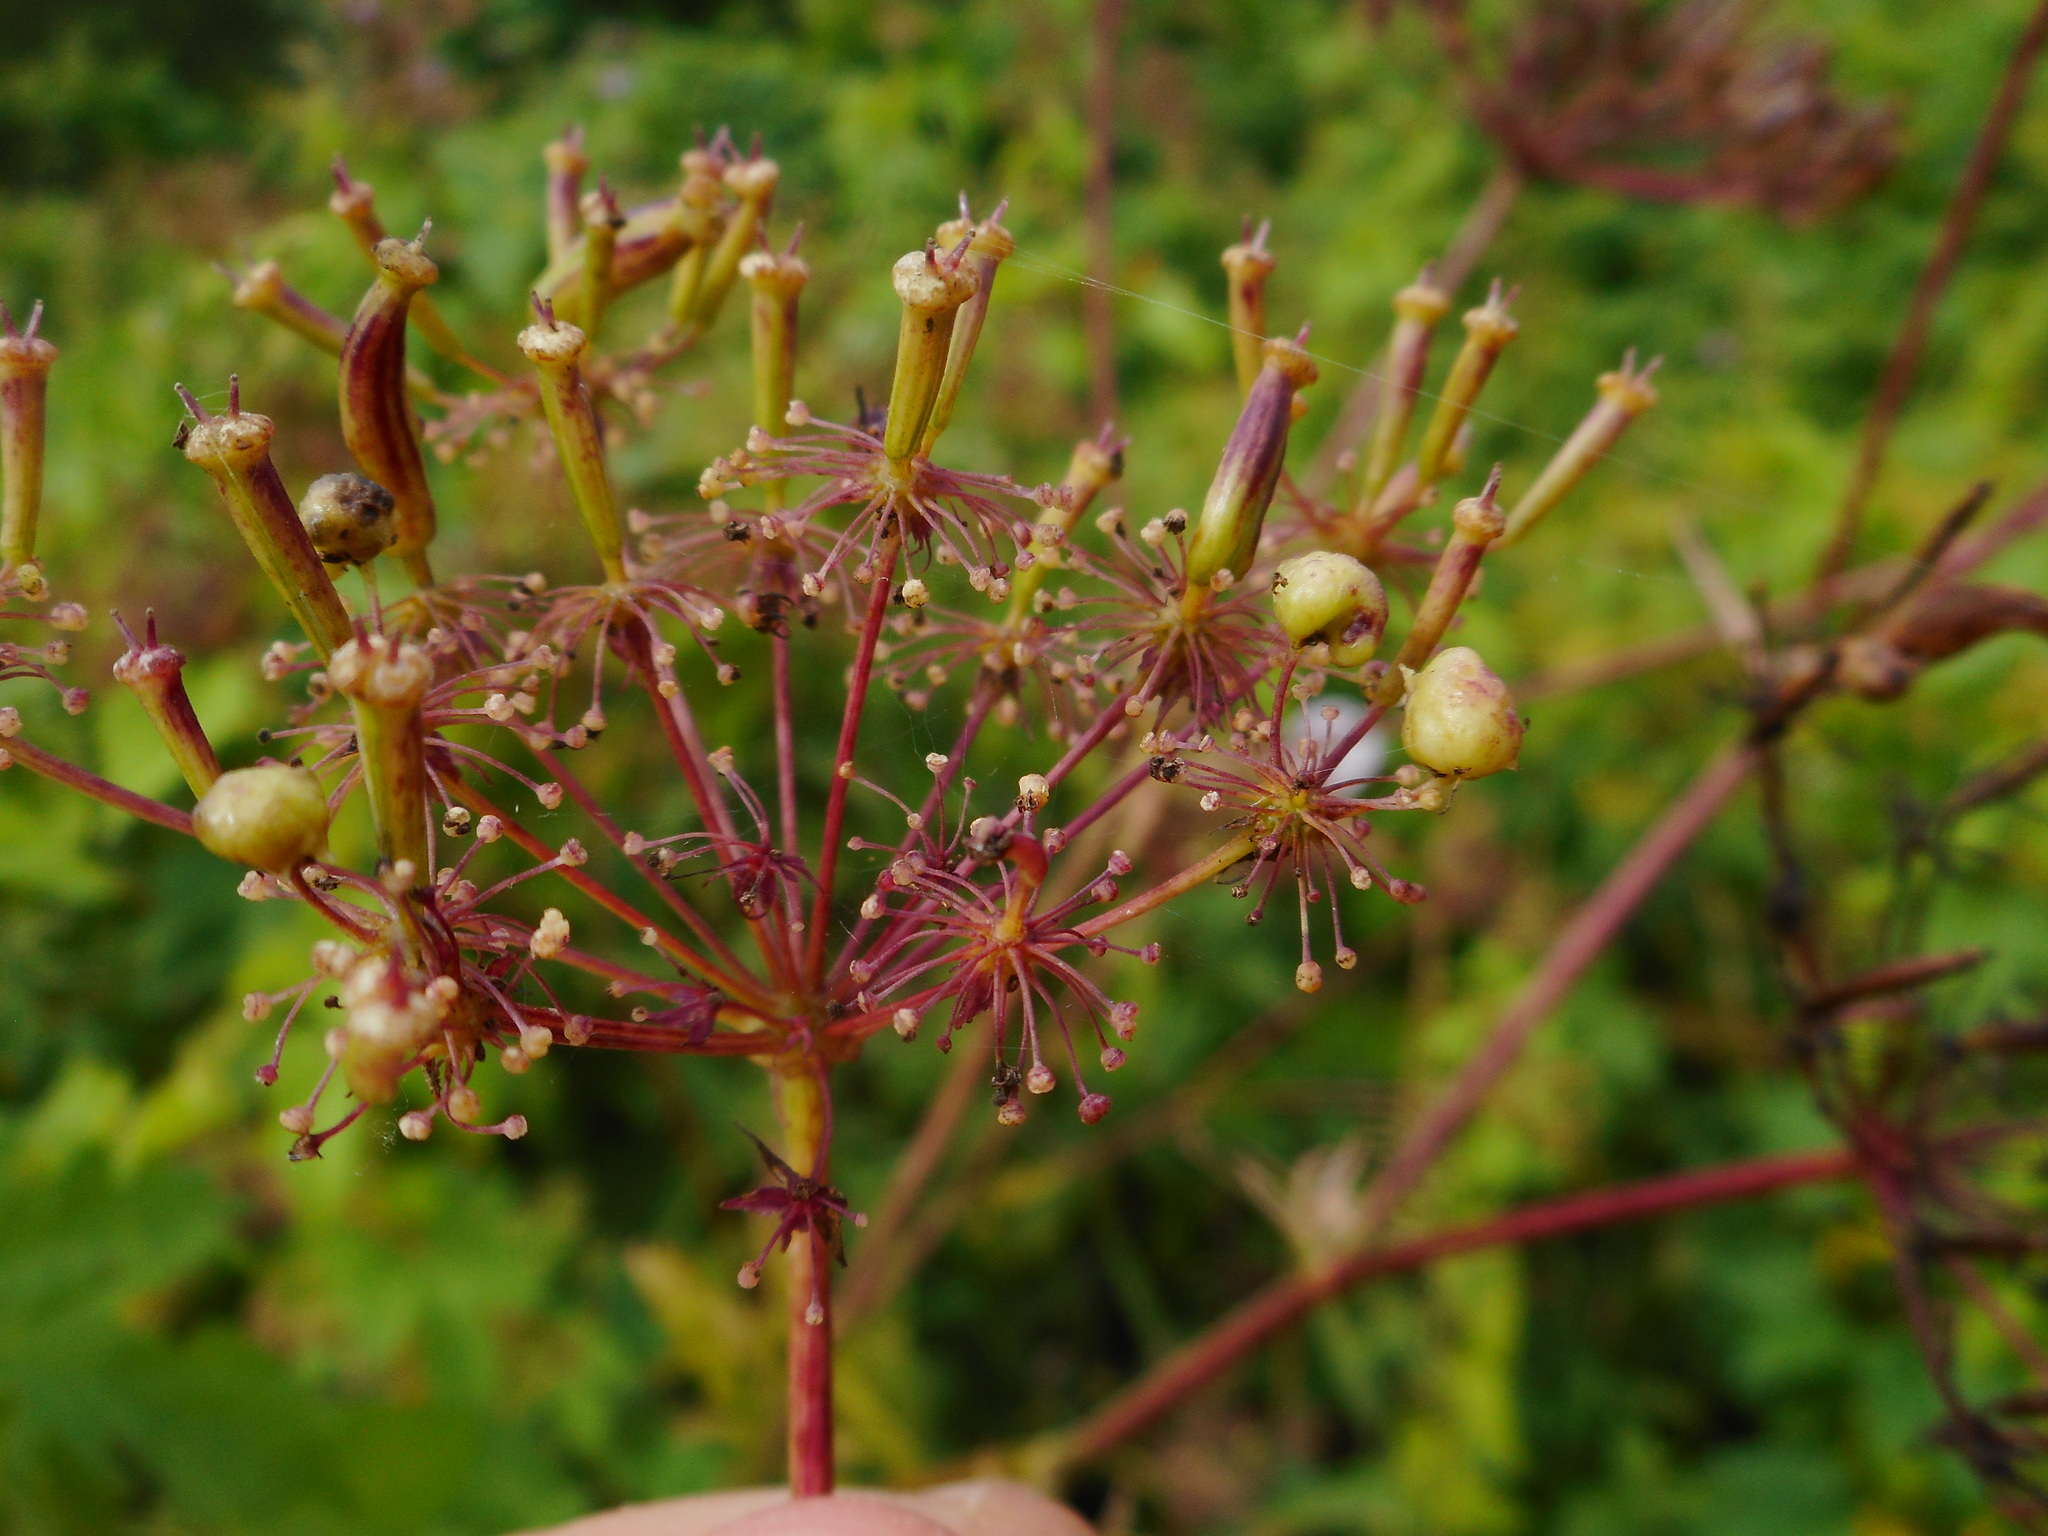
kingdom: Animalia
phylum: Arthropoda
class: Insecta
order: Diptera
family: Cecidomyiidae
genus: Kiefferia
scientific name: Kiefferia pericarpiicola
